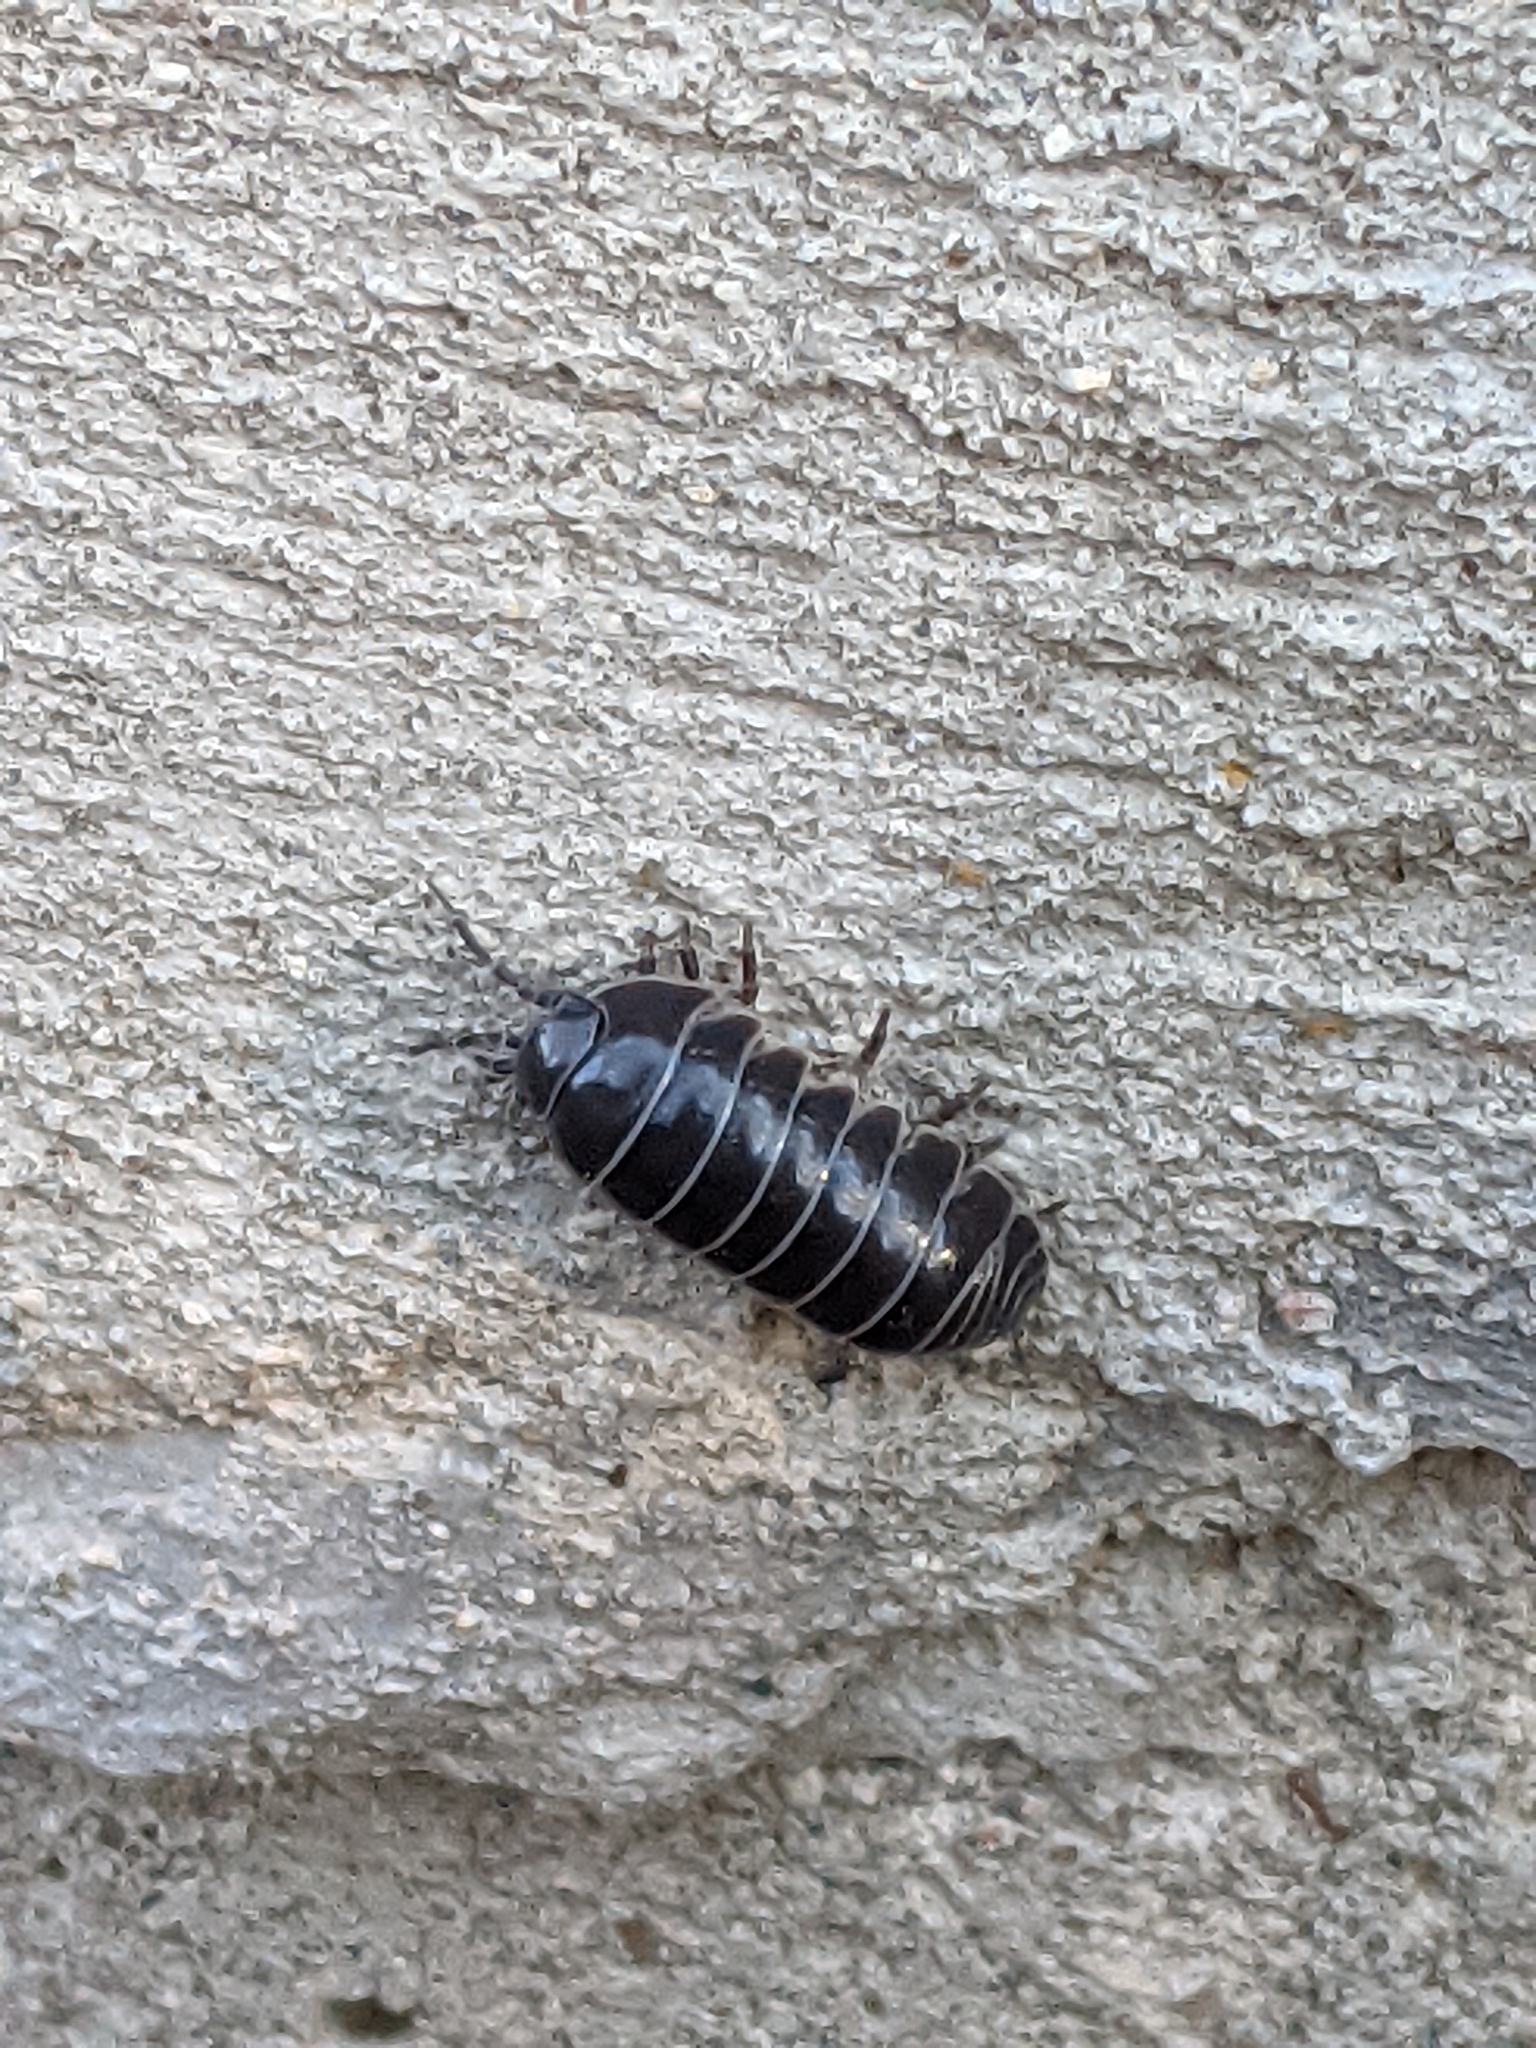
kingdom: Animalia
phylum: Arthropoda
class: Malacostraca
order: Isopoda
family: Armadillidiidae
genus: Armadillidium
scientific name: Armadillidium vulgare
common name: Common pill woodlouse
